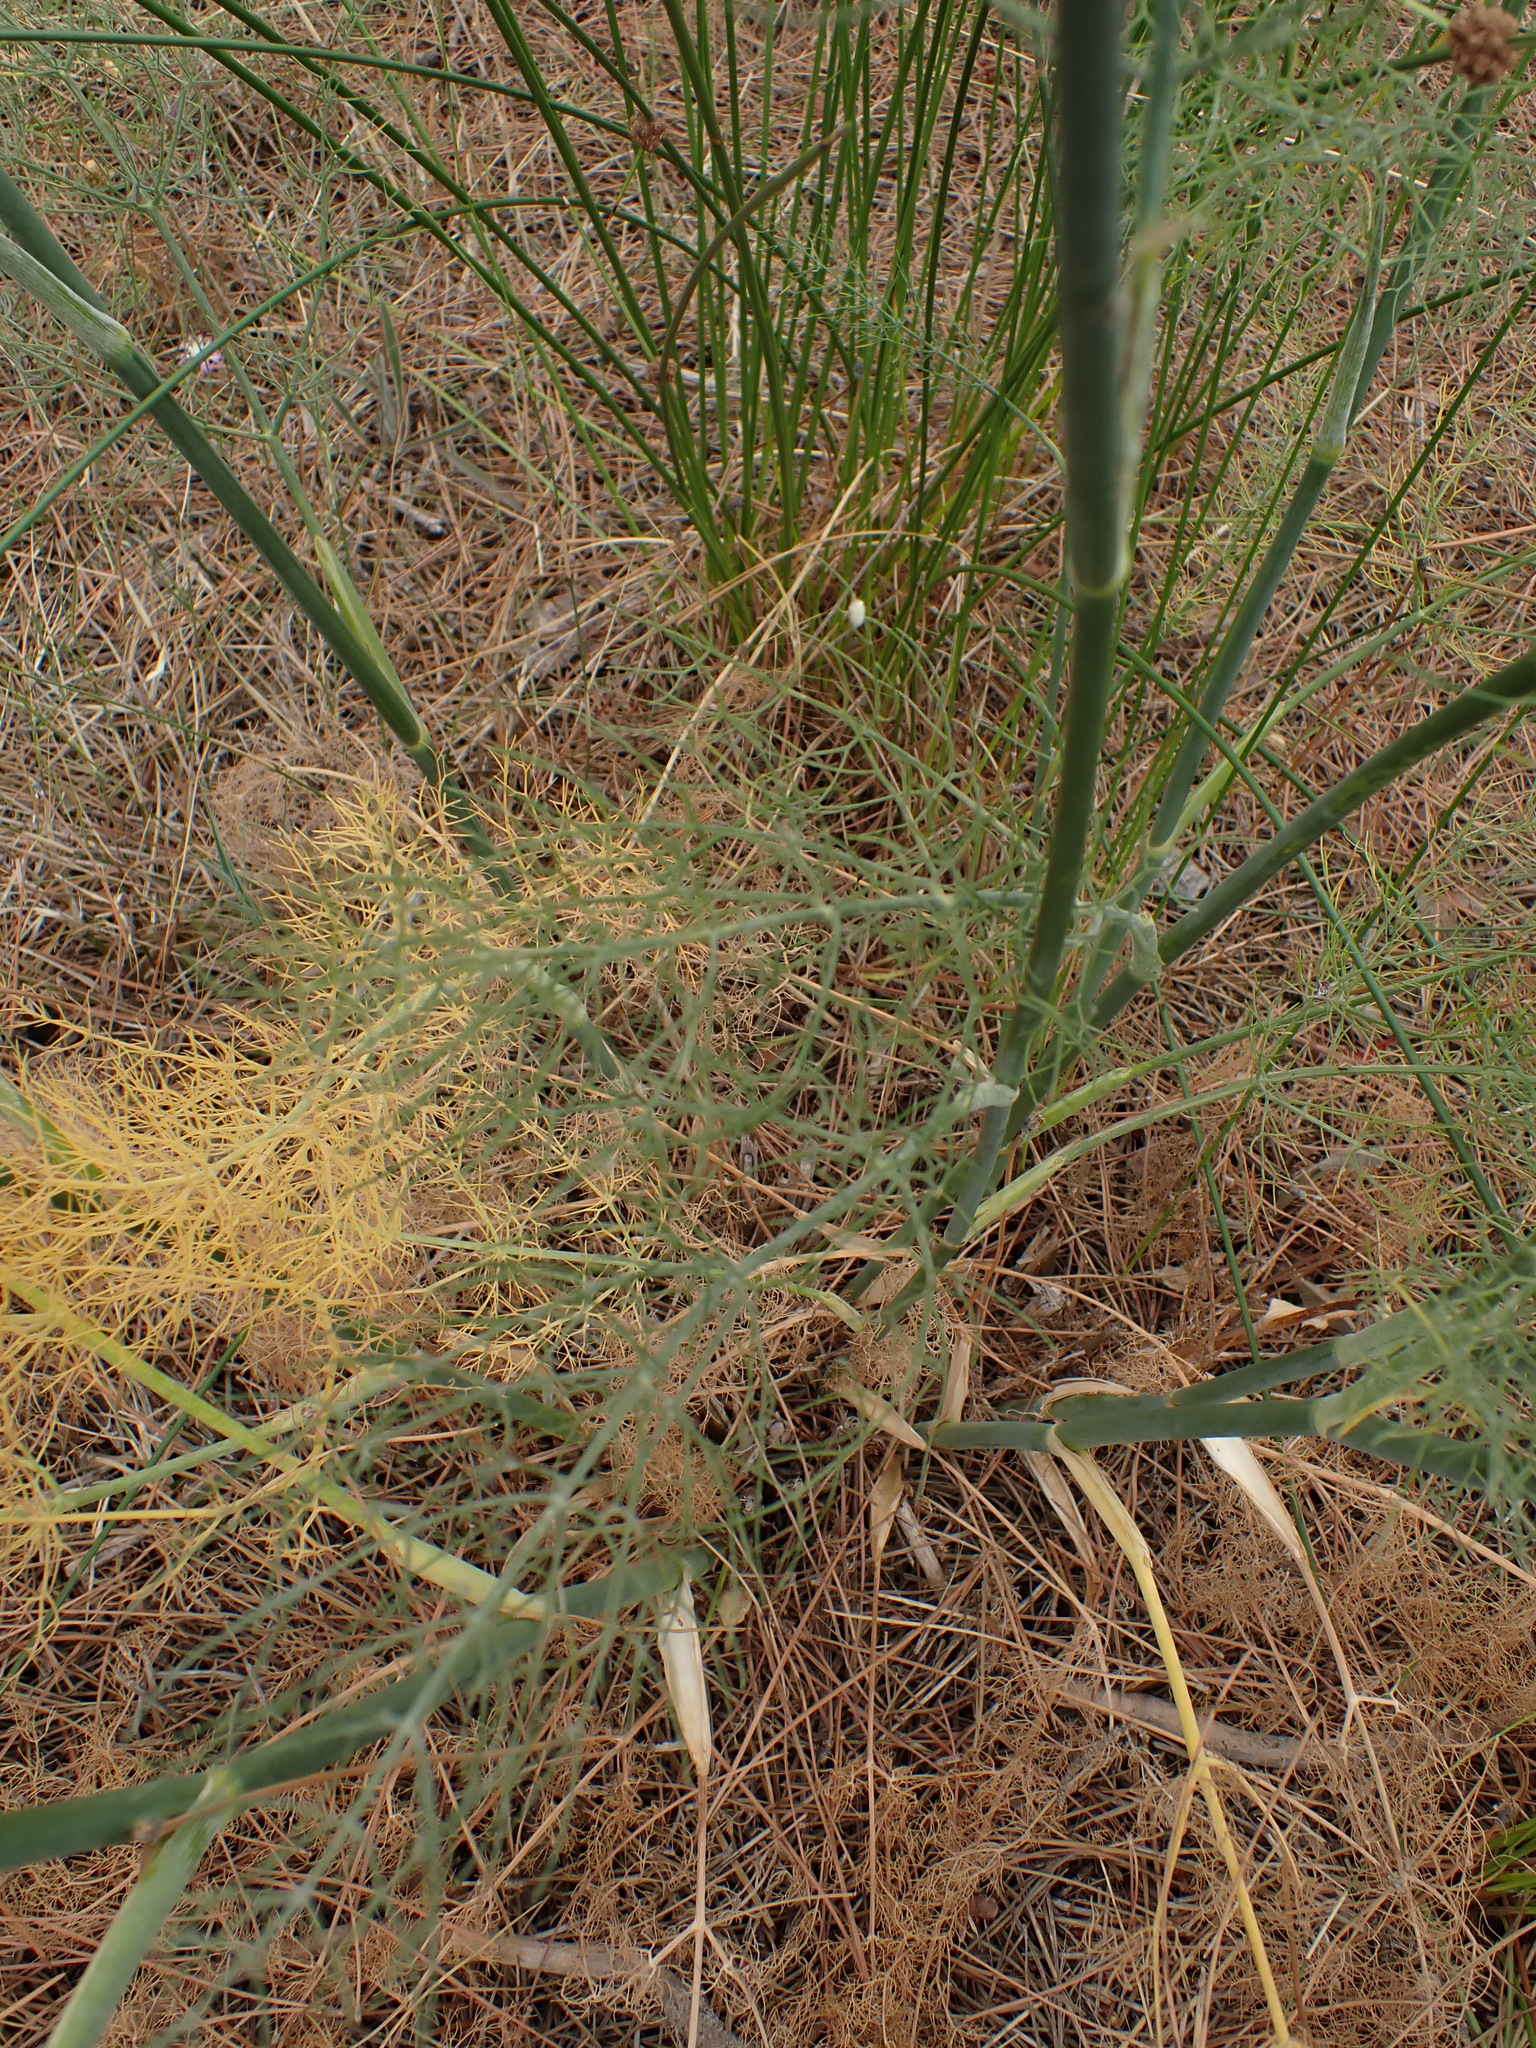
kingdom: Plantae
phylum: Tracheophyta
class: Magnoliopsida
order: Apiales
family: Apiaceae
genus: Foeniculum
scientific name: Foeniculum vulgare
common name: Fennel
